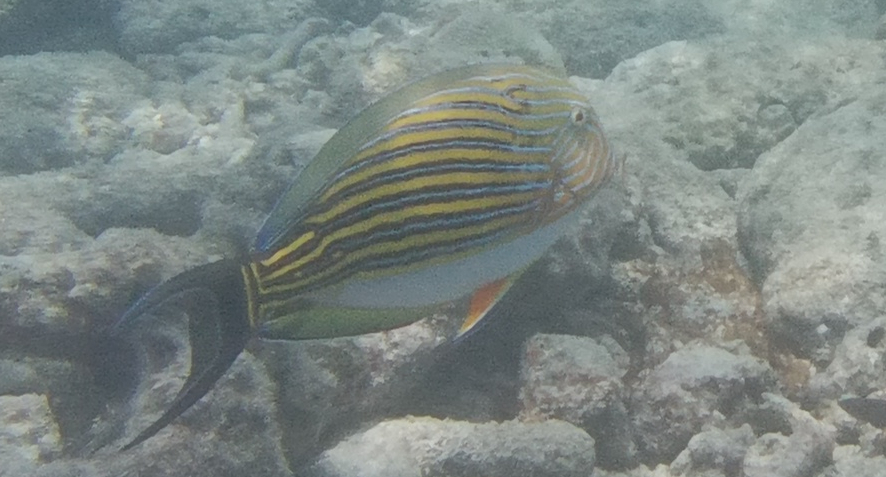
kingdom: Animalia
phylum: Chordata
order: Perciformes
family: Acanthuridae
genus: Acanthurus
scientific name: Acanthurus lineatus
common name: Striped surgeonfish
